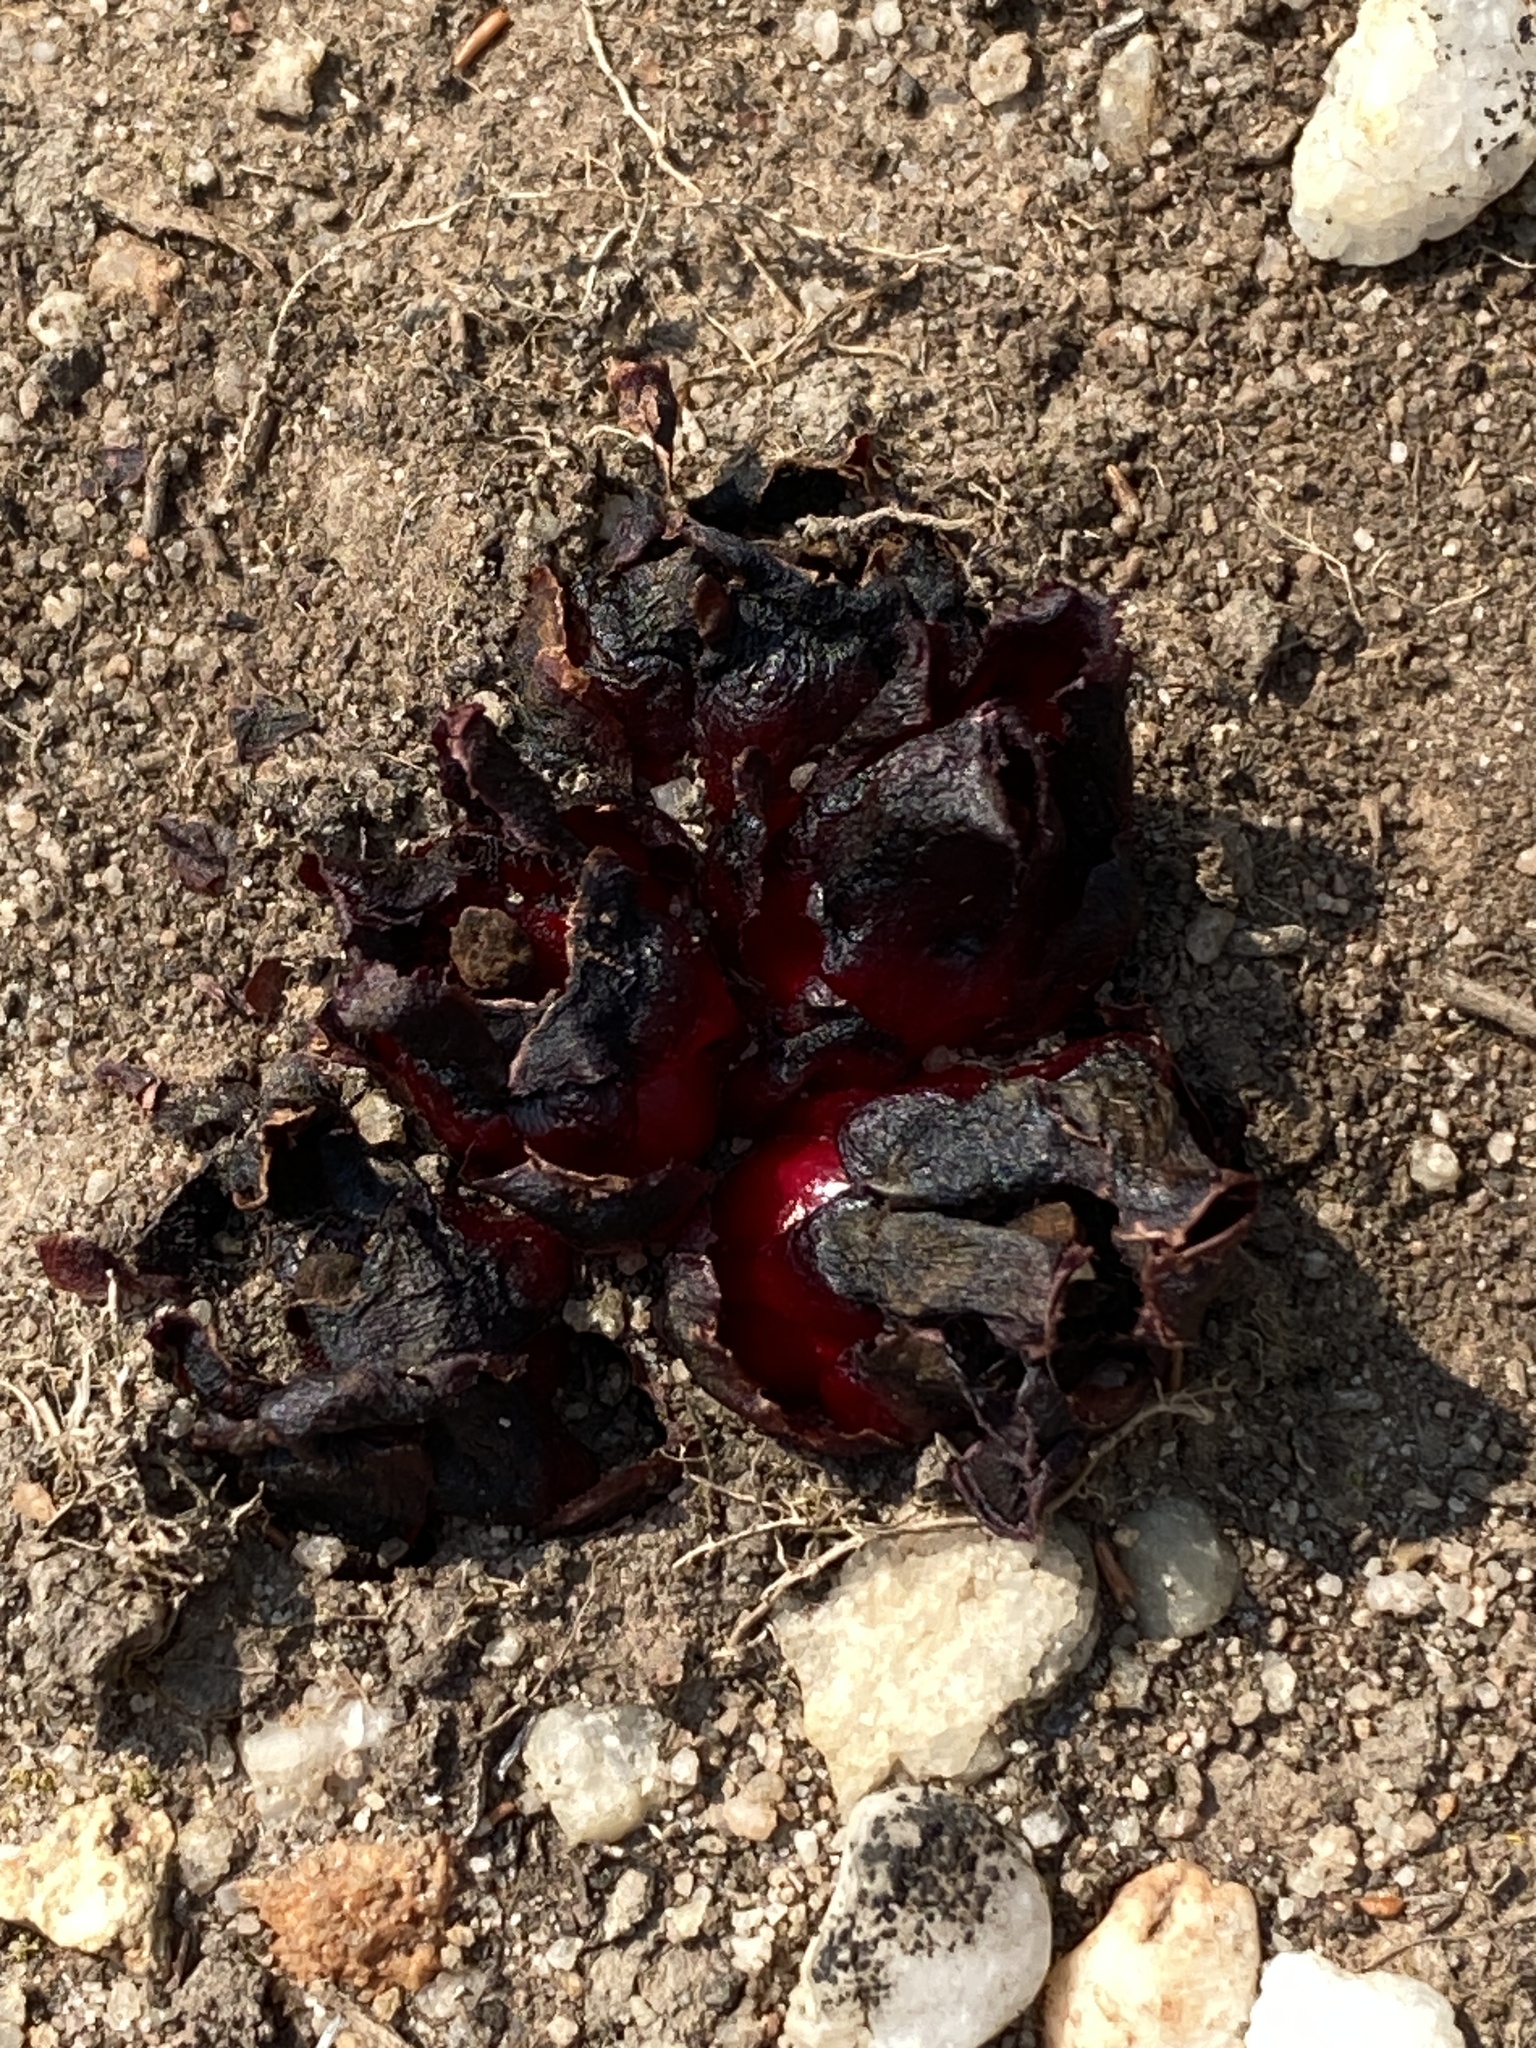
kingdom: Plantae
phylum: Tracheophyta
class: Magnoliopsida
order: Malvales
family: Cytinaceae
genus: Cytinus
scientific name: Cytinus sanguineus
